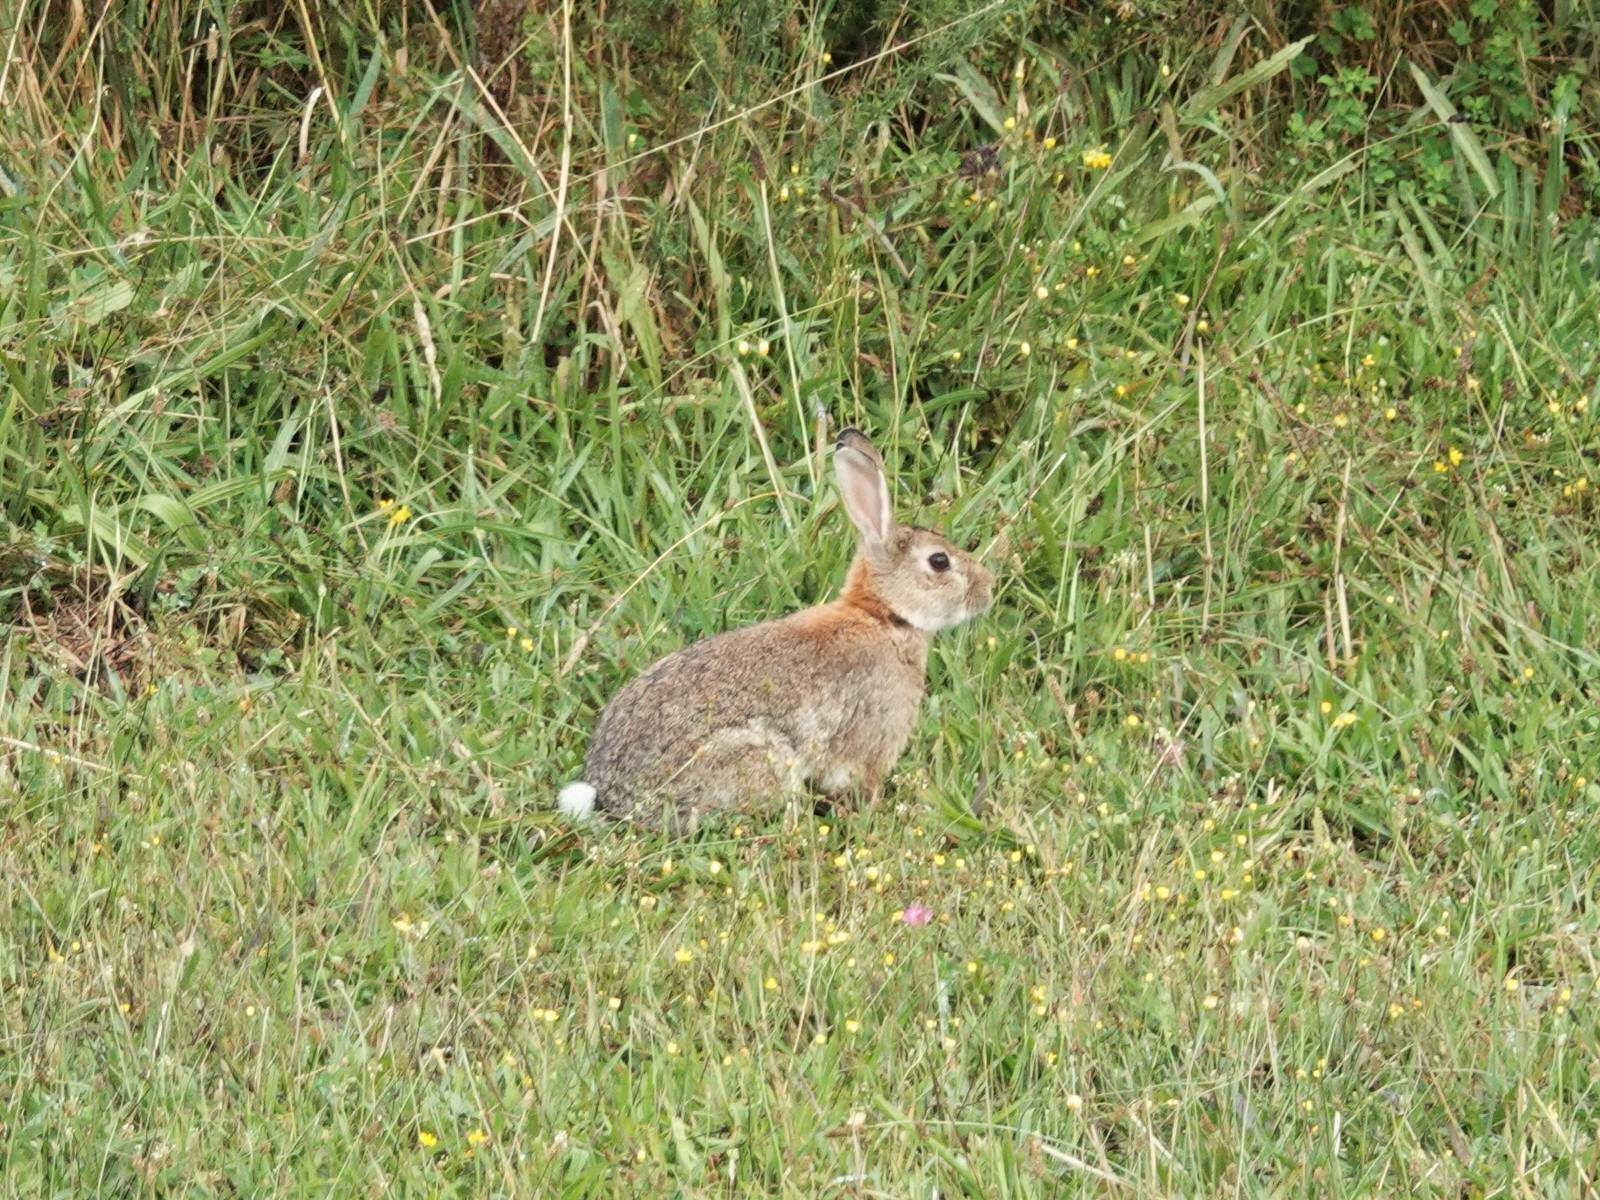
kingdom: Animalia
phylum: Chordata
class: Mammalia
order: Lagomorpha
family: Leporidae
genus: Oryctolagus
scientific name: Oryctolagus cuniculus
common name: European rabbit
